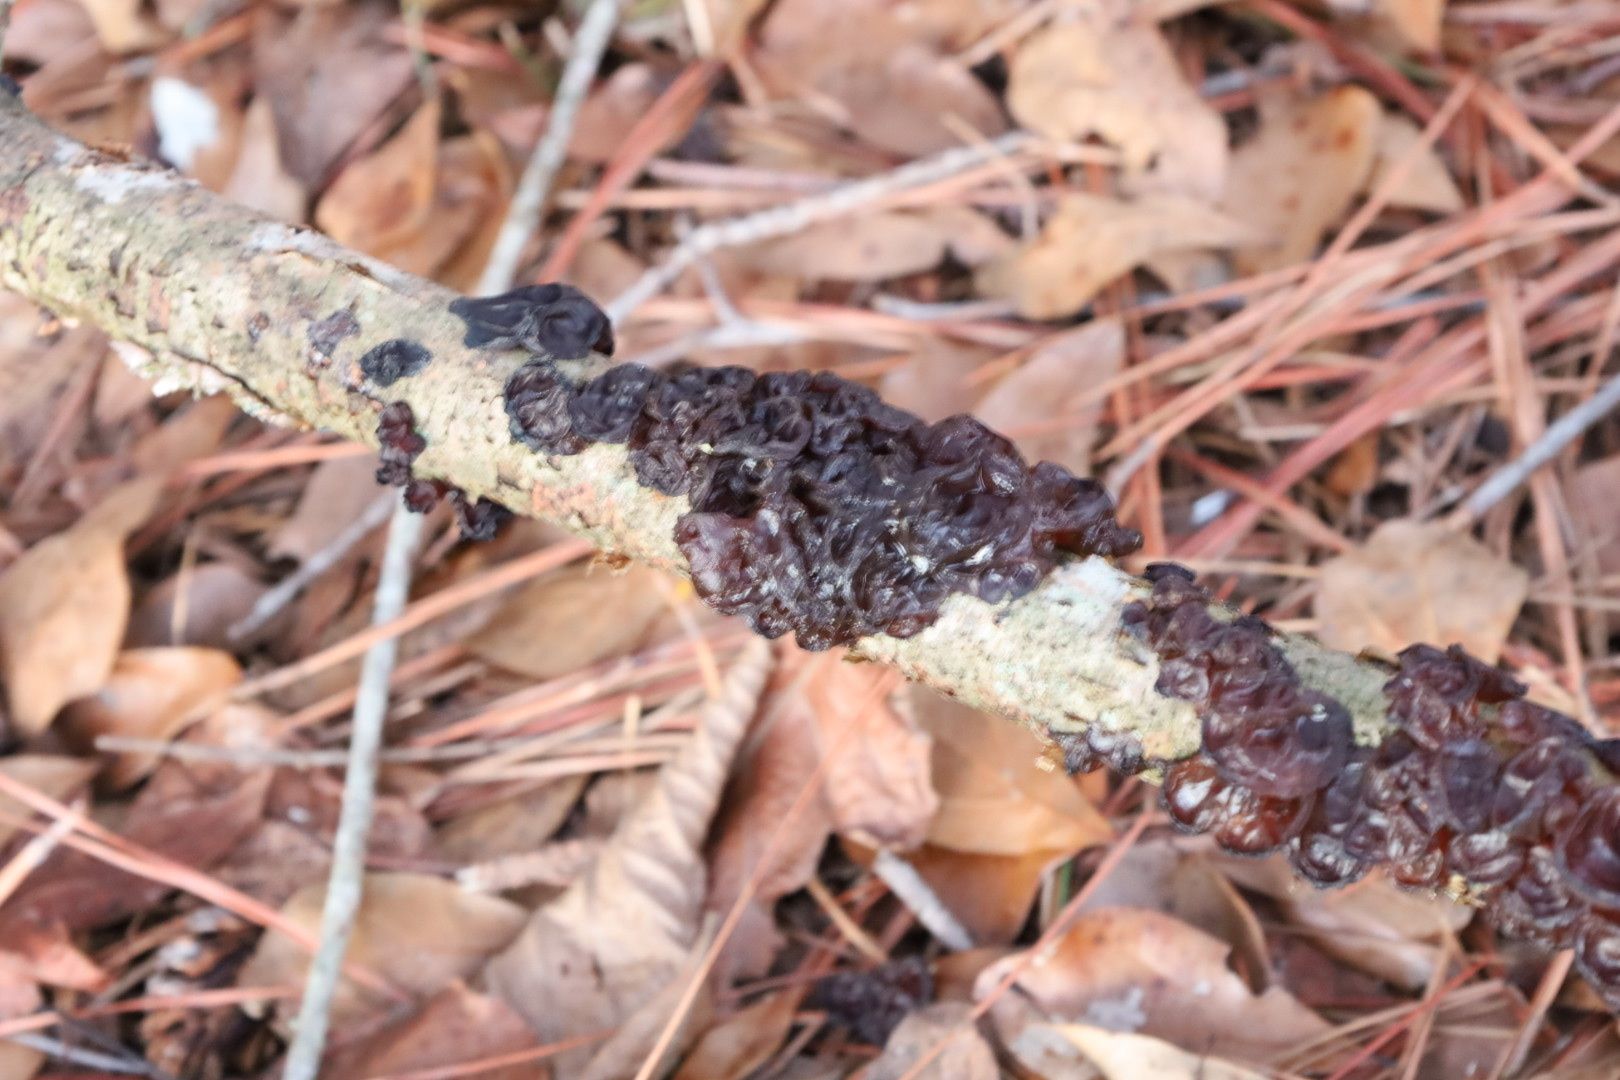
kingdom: Fungi
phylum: Basidiomycota
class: Agaricomycetes
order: Auriculariales
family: Auriculariaceae
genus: Exidia
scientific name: Exidia
